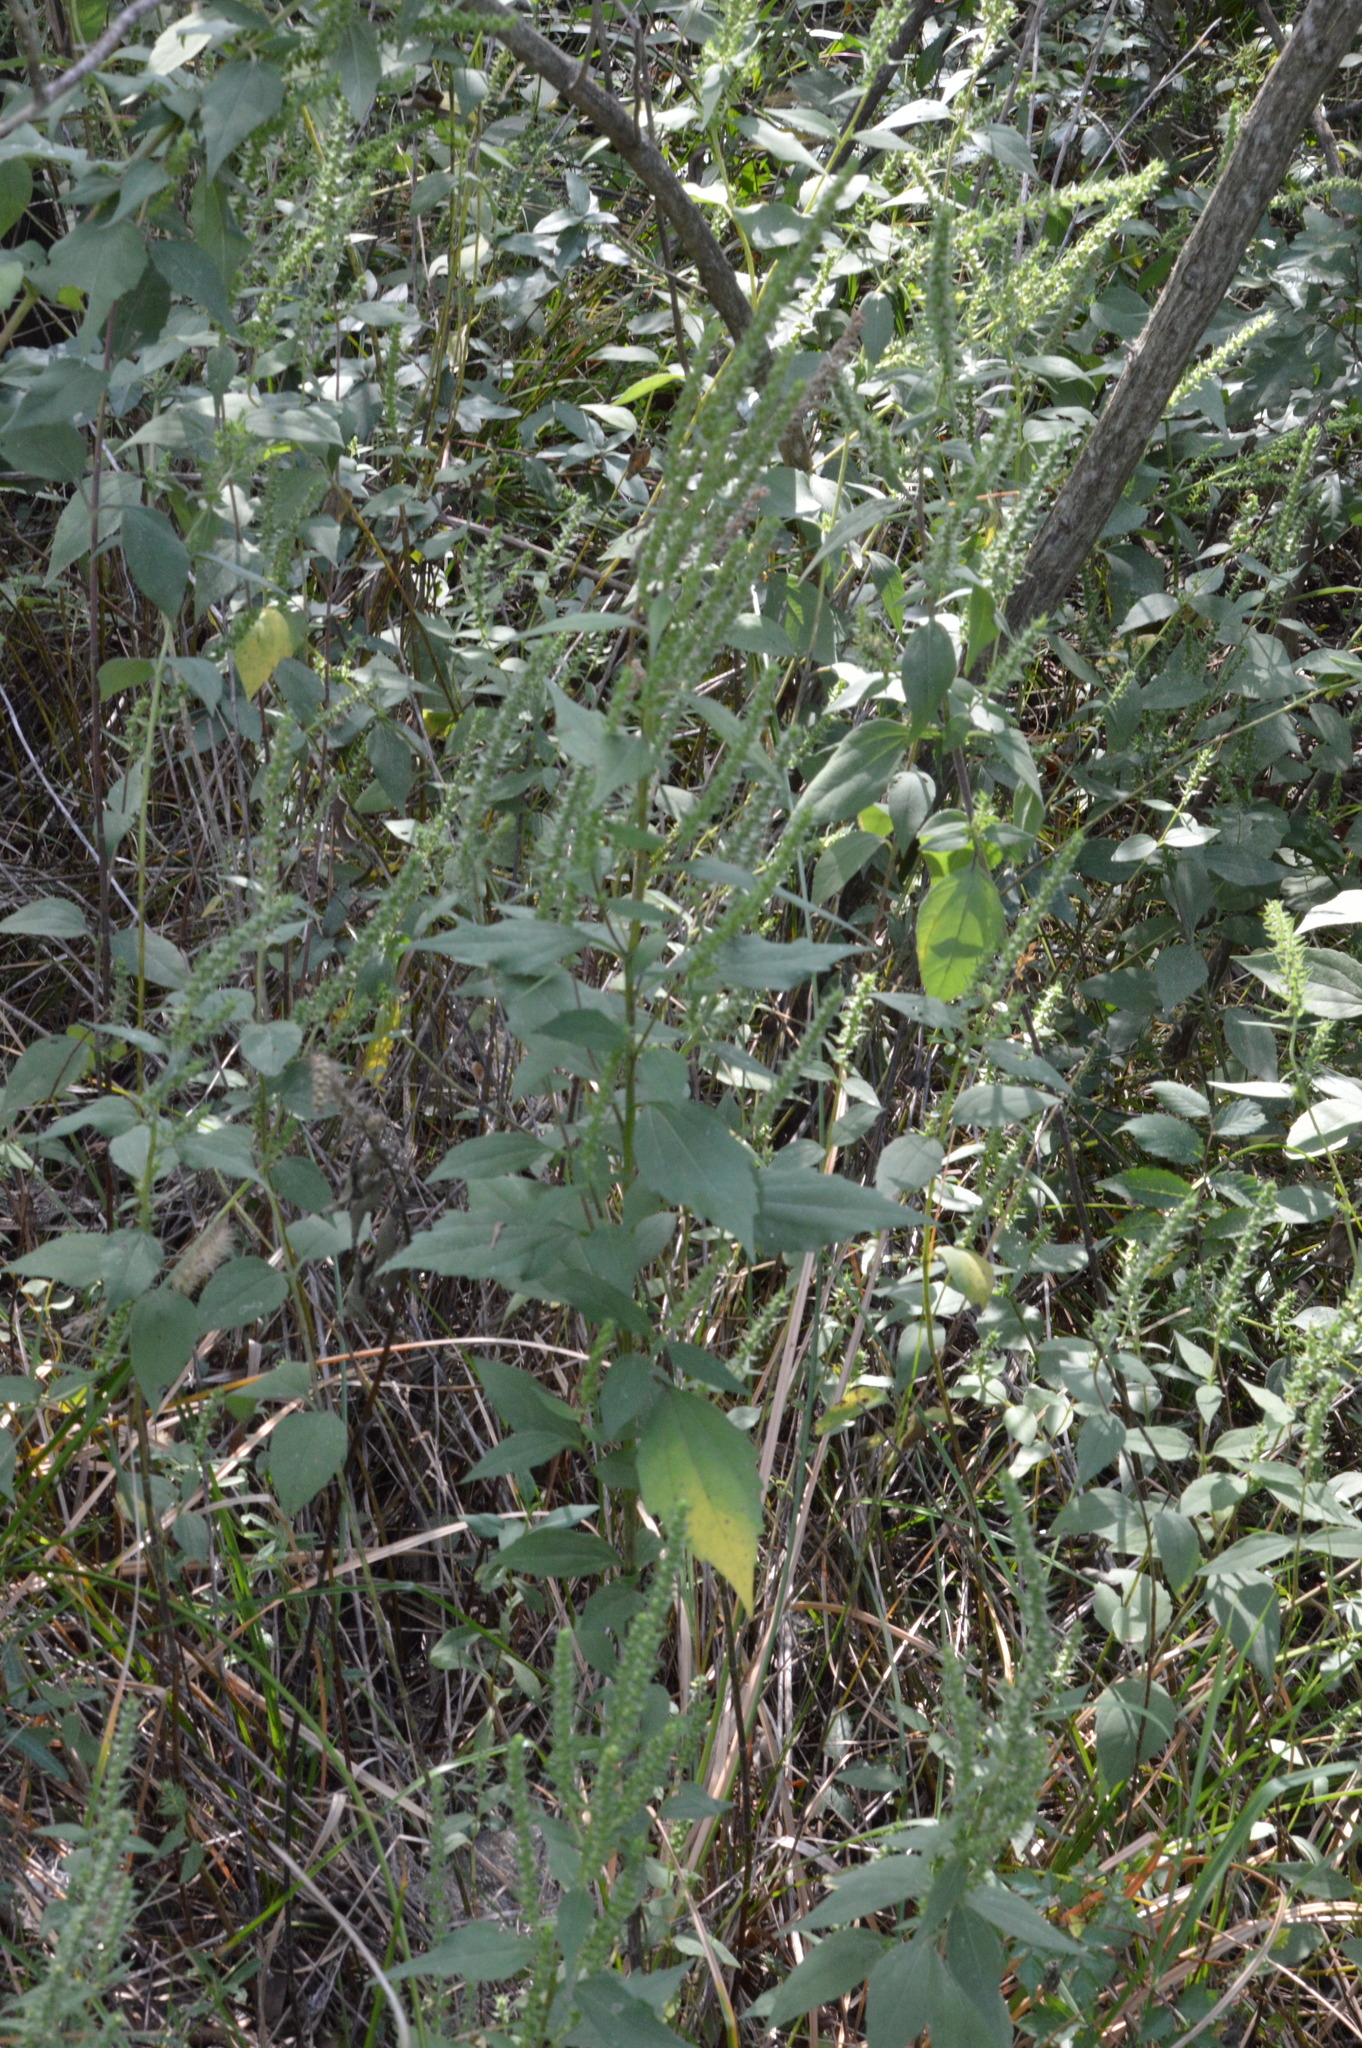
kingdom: Plantae
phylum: Tracheophyta
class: Magnoliopsida
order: Asterales
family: Asteraceae
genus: Iva
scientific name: Iva annua
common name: Marsh-elder
